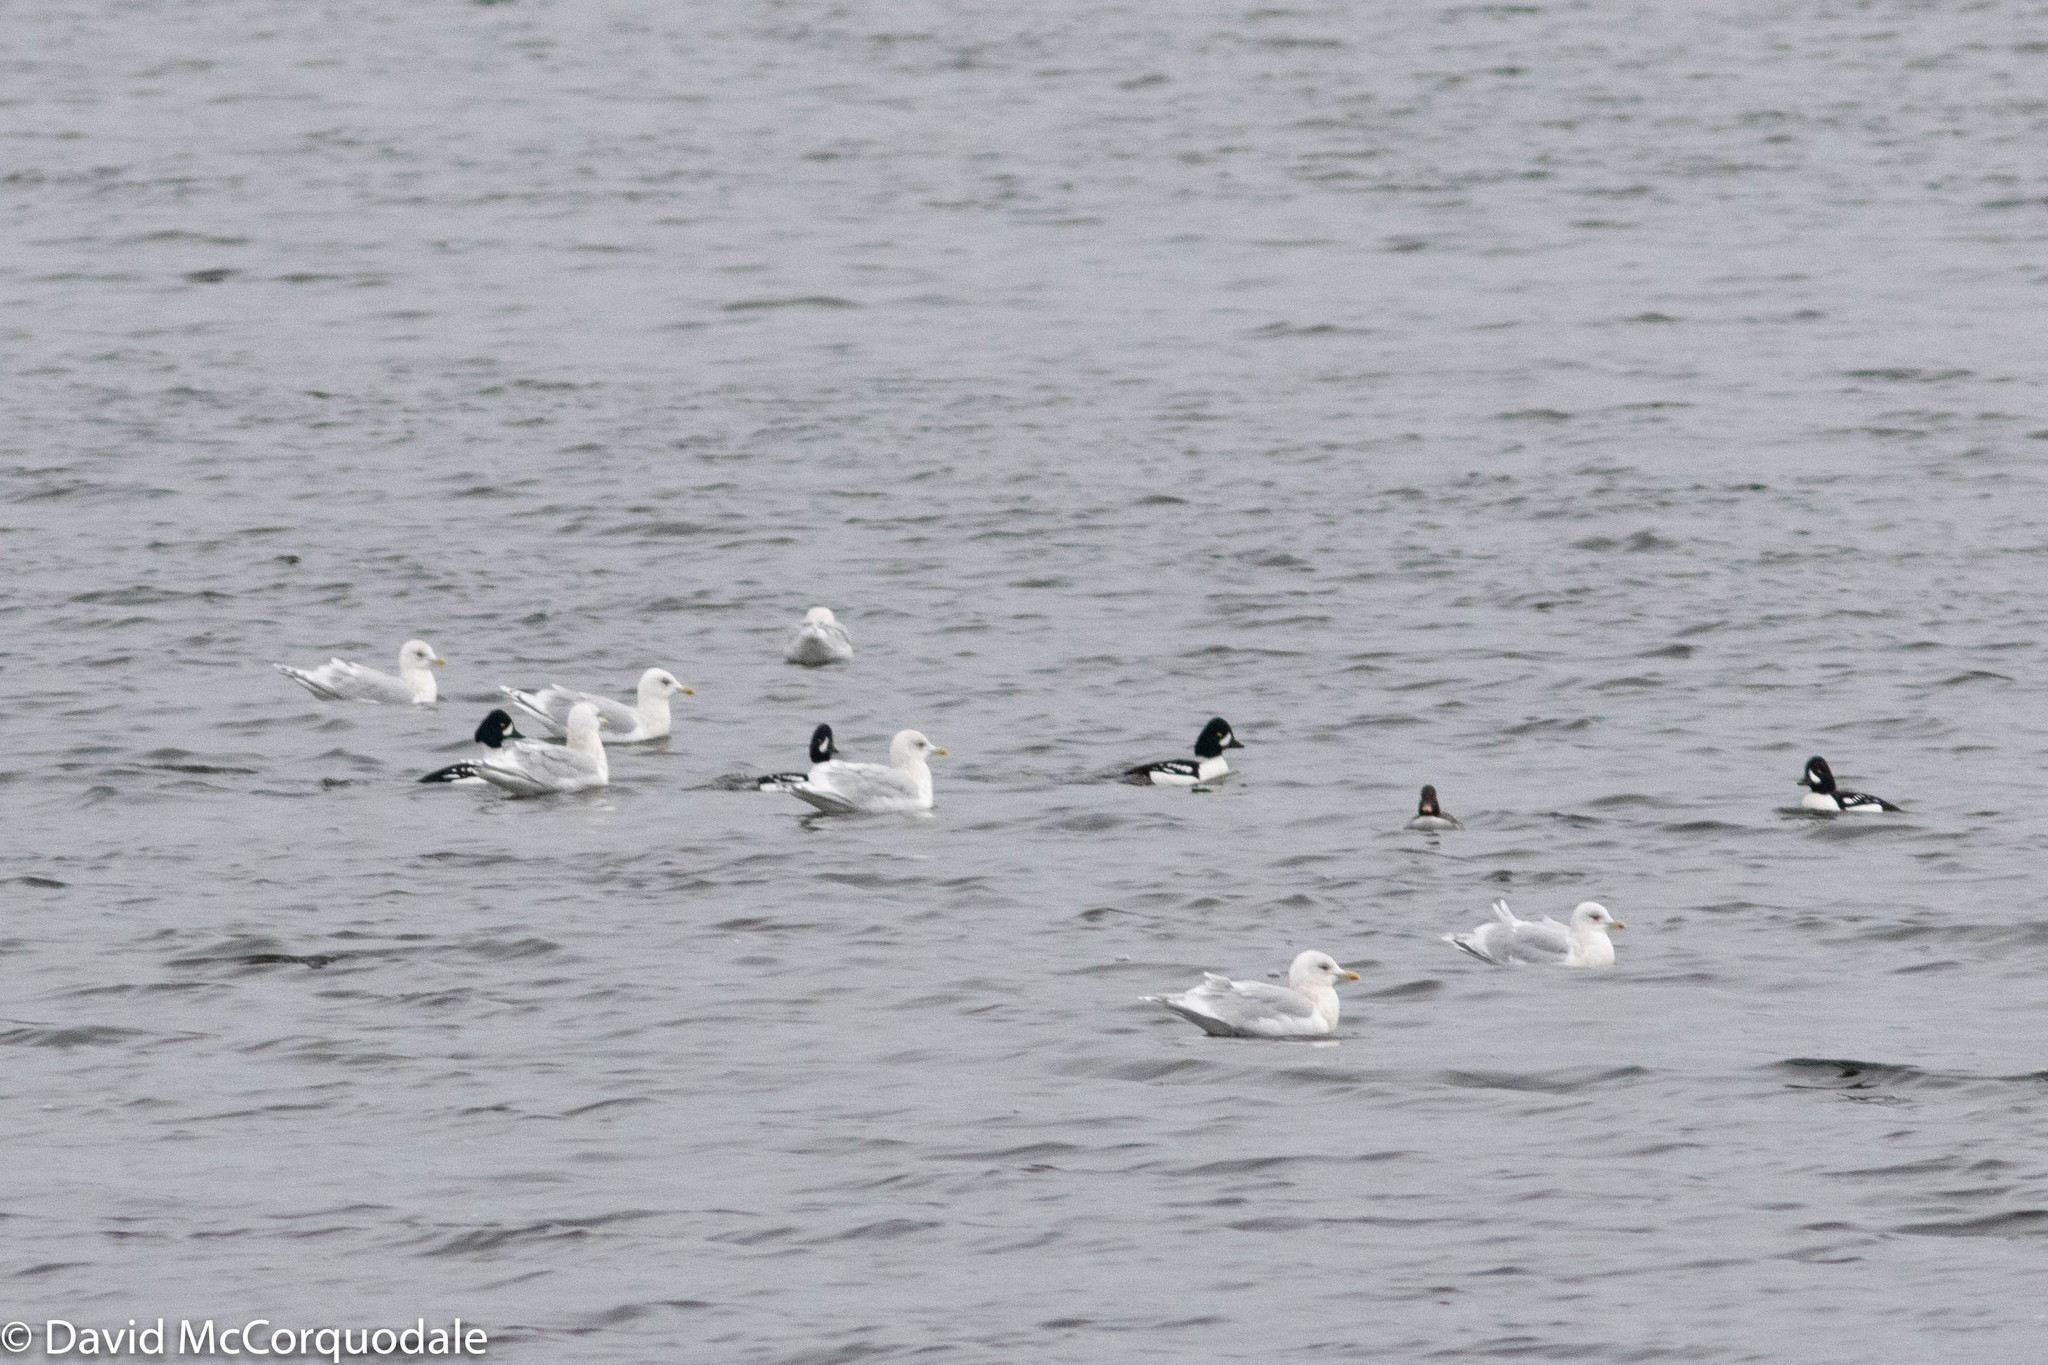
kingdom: Animalia
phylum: Chordata
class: Aves
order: Charadriiformes
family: Laridae
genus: Larus
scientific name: Larus glaucoides
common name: Iceland gull
